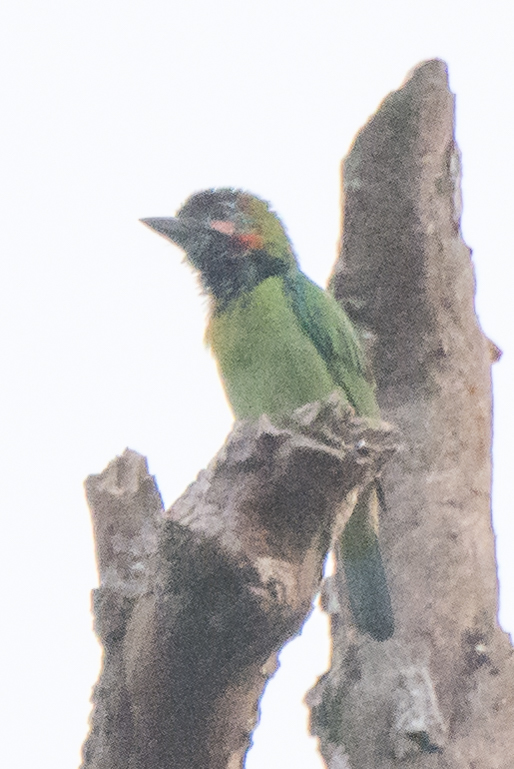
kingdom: Animalia
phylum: Chordata
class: Aves
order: Piciformes
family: Megalaimidae
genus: Psilopogon
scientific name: Psilopogon duvaucelii
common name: Blue-eared barbet
